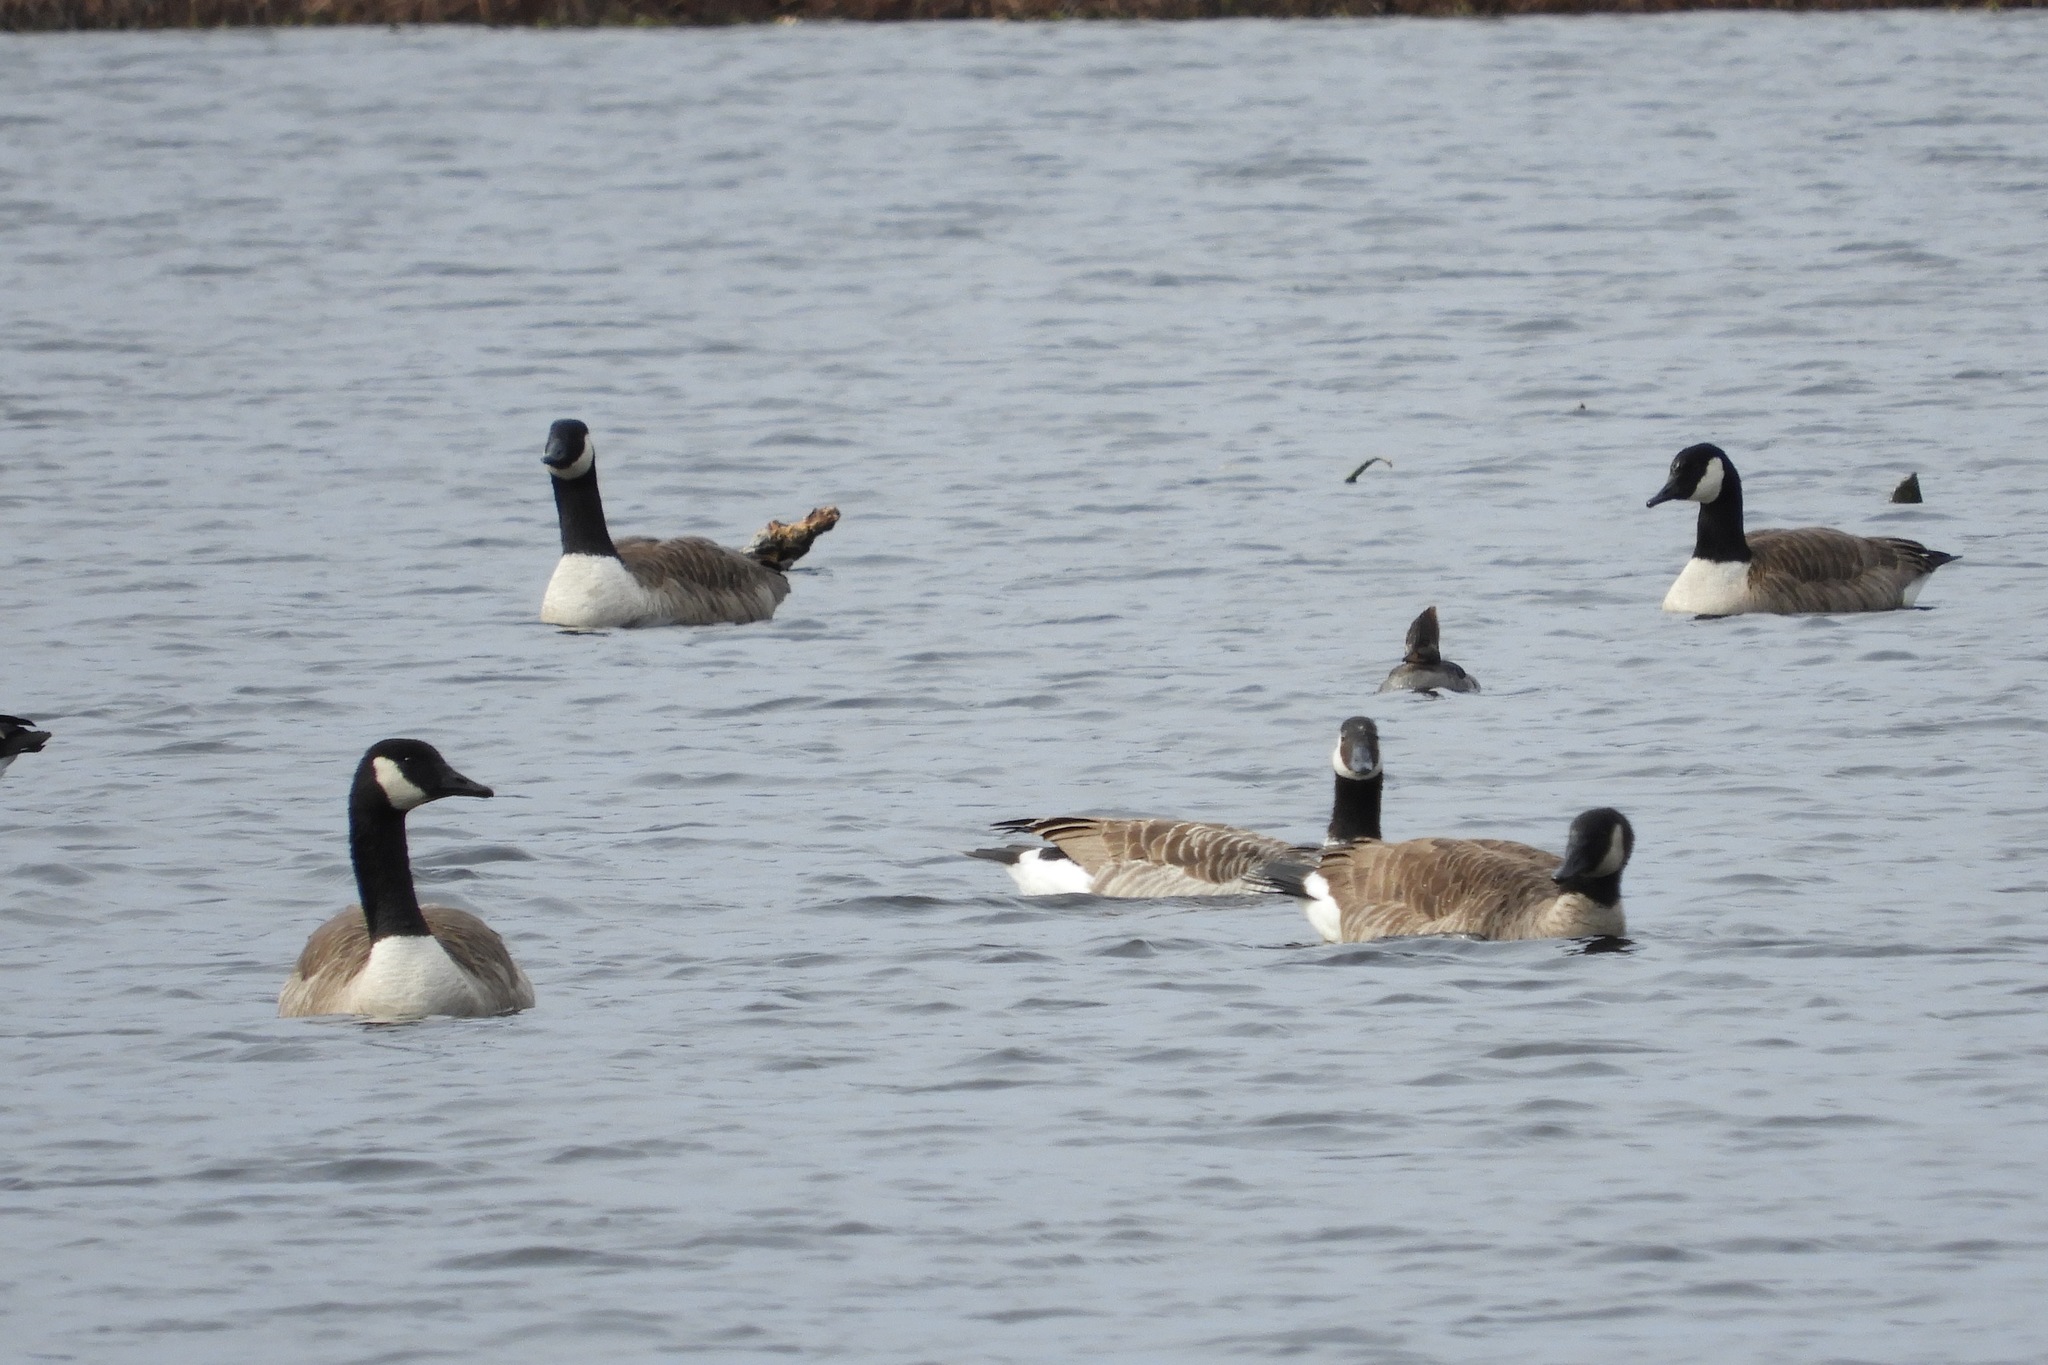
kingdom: Animalia
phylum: Chordata
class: Aves
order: Anseriformes
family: Anatidae
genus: Branta
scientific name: Branta canadensis
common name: Canada goose
